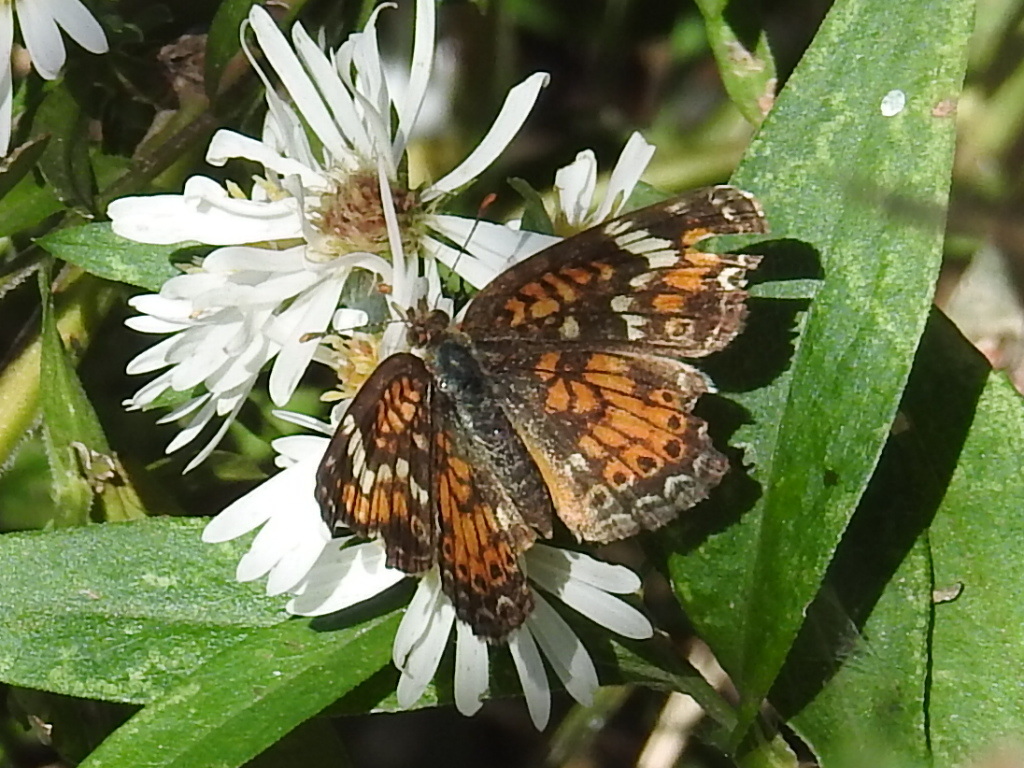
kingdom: Animalia
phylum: Arthropoda
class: Insecta
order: Lepidoptera
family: Nymphalidae
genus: Phyciodes
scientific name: Phyciodes phaon
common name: Phaon crescent
